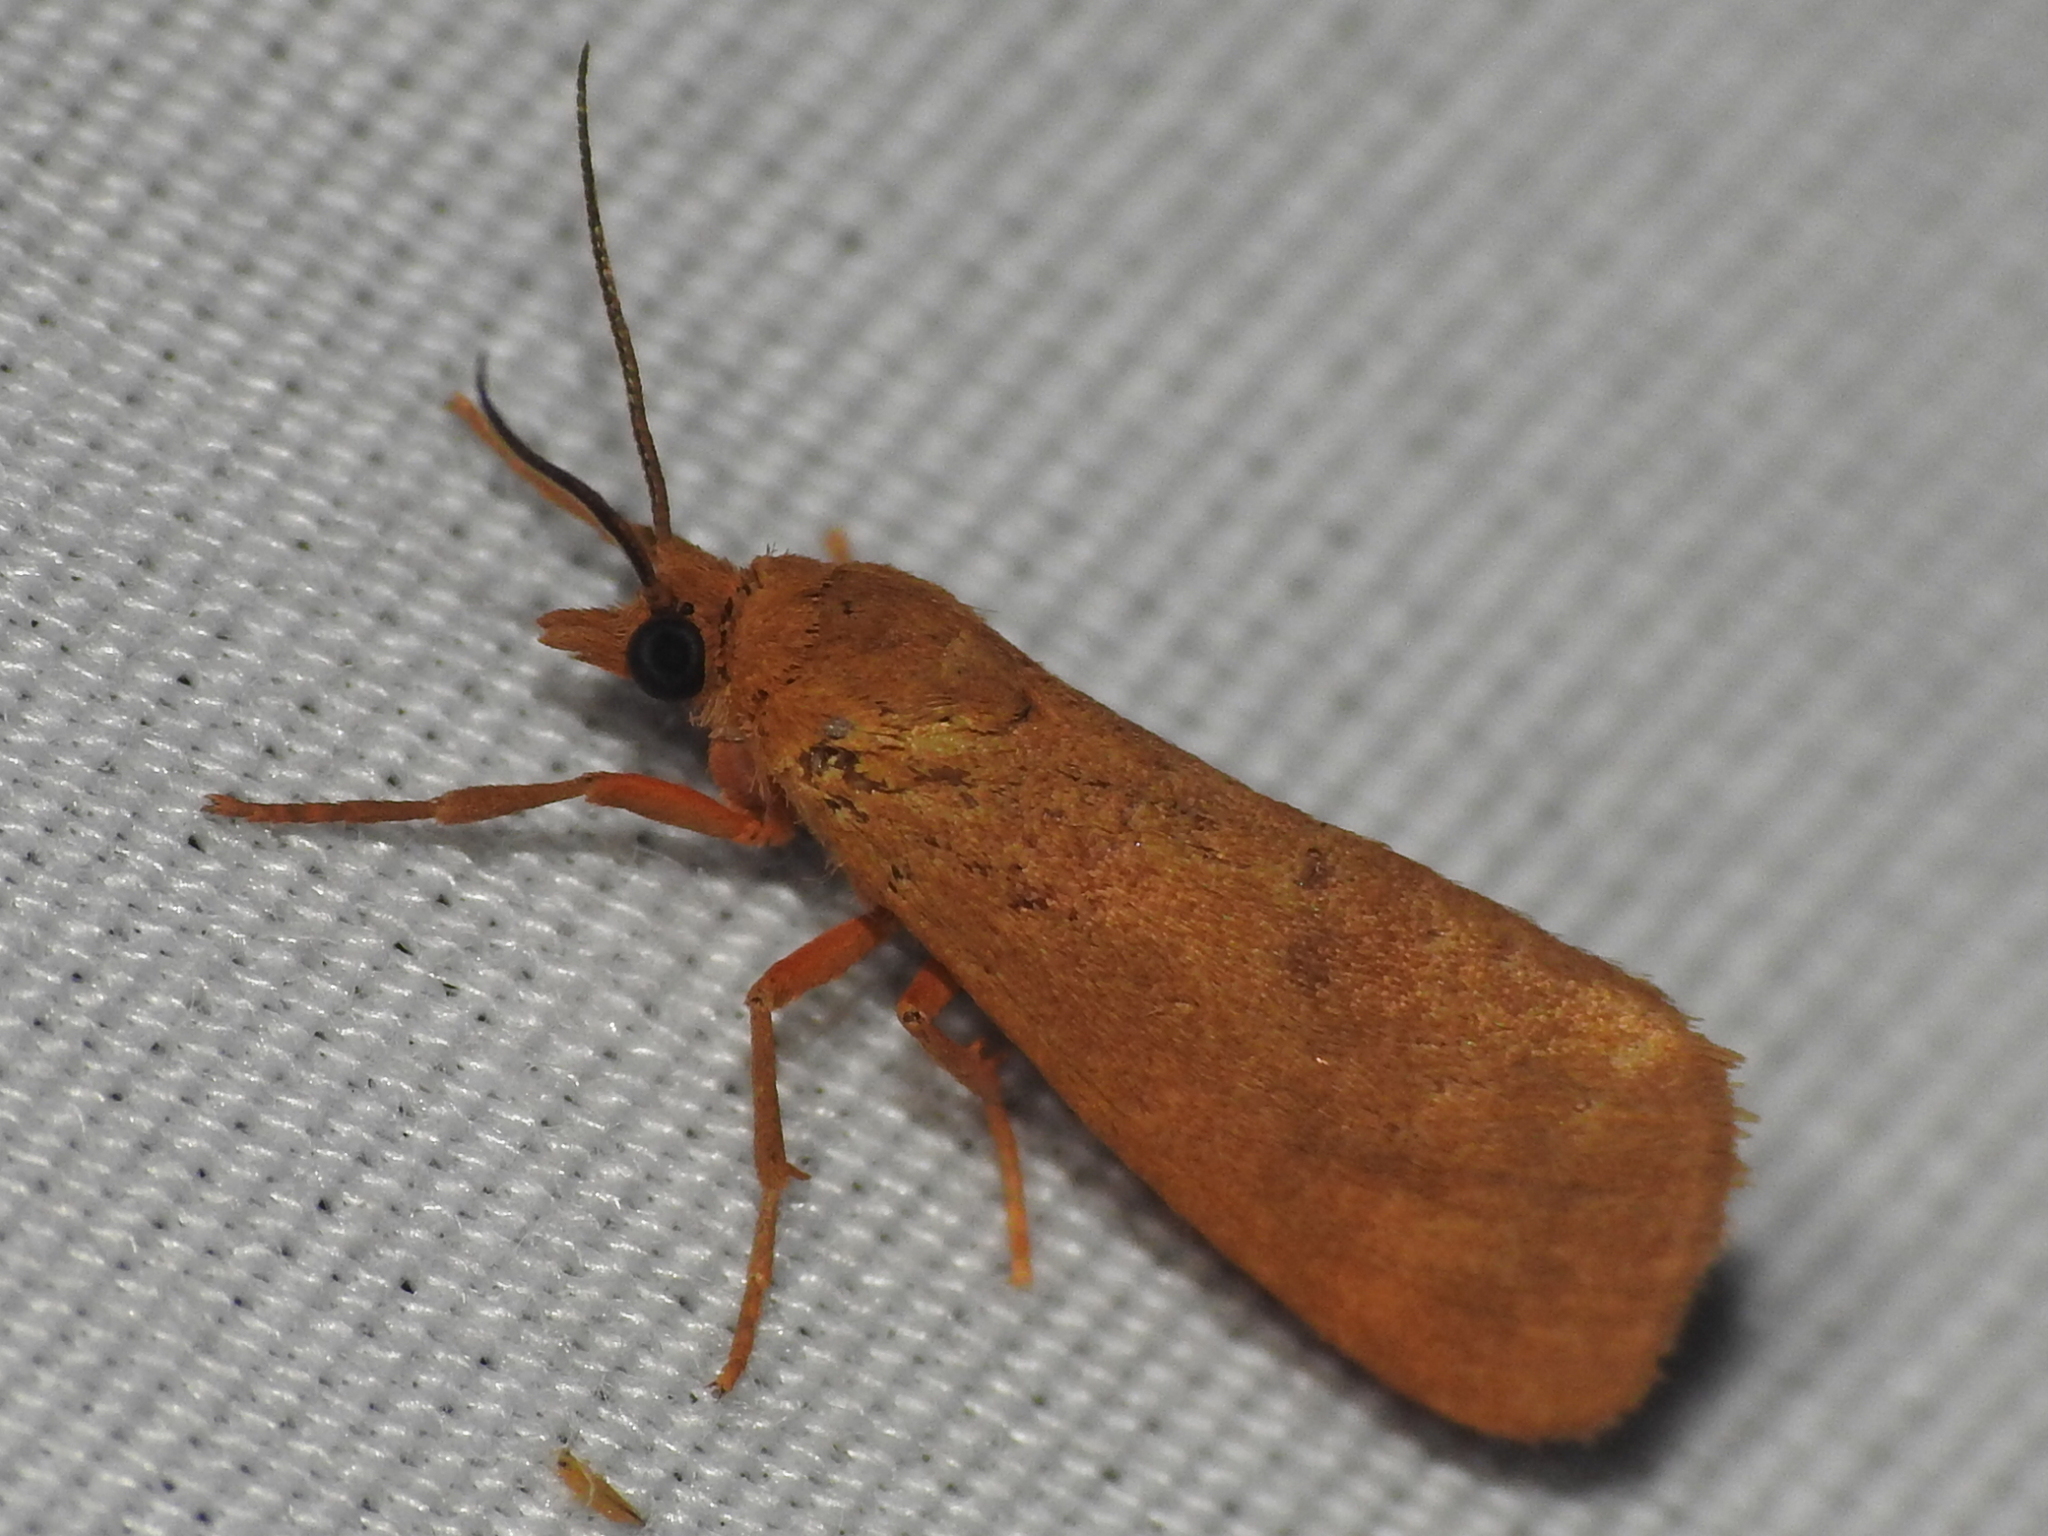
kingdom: Animalia
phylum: Arthropoda
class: Insecta
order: Lepidoptera
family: Erebidae
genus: Virbia
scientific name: Virbia aurantiaca
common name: Orange virbia moth
